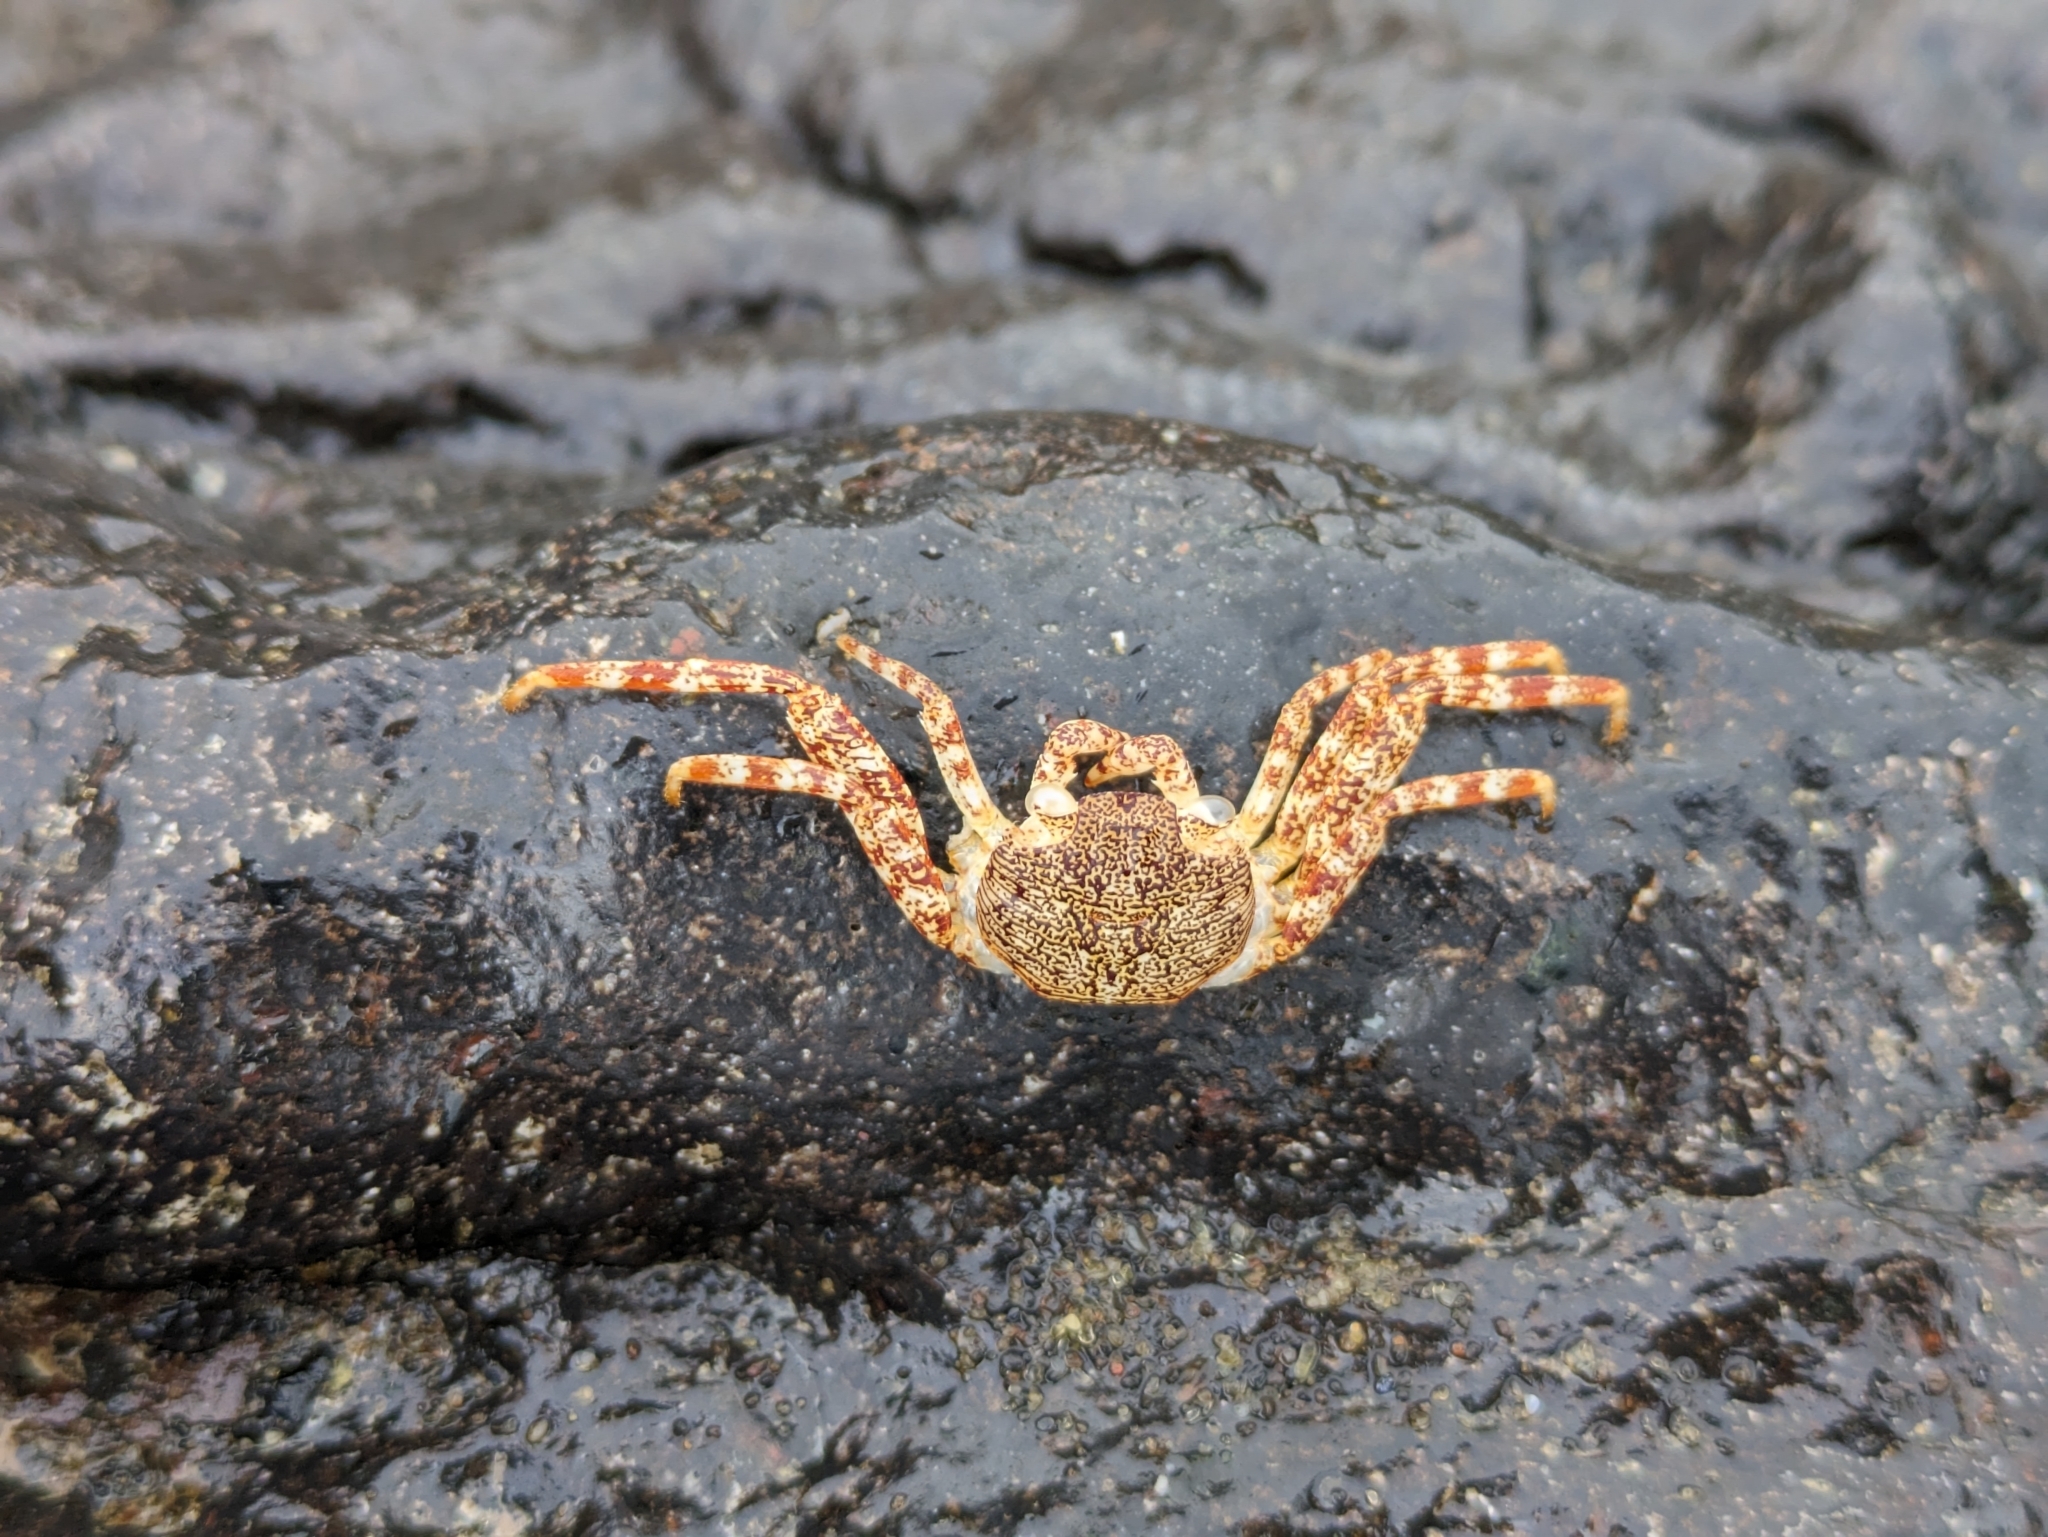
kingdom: Animalia
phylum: Arthropoda
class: Malacostraca
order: Decapoda
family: Grapsidae
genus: Grapsus
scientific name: Grapsus grapsus
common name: Sally lightfoot
